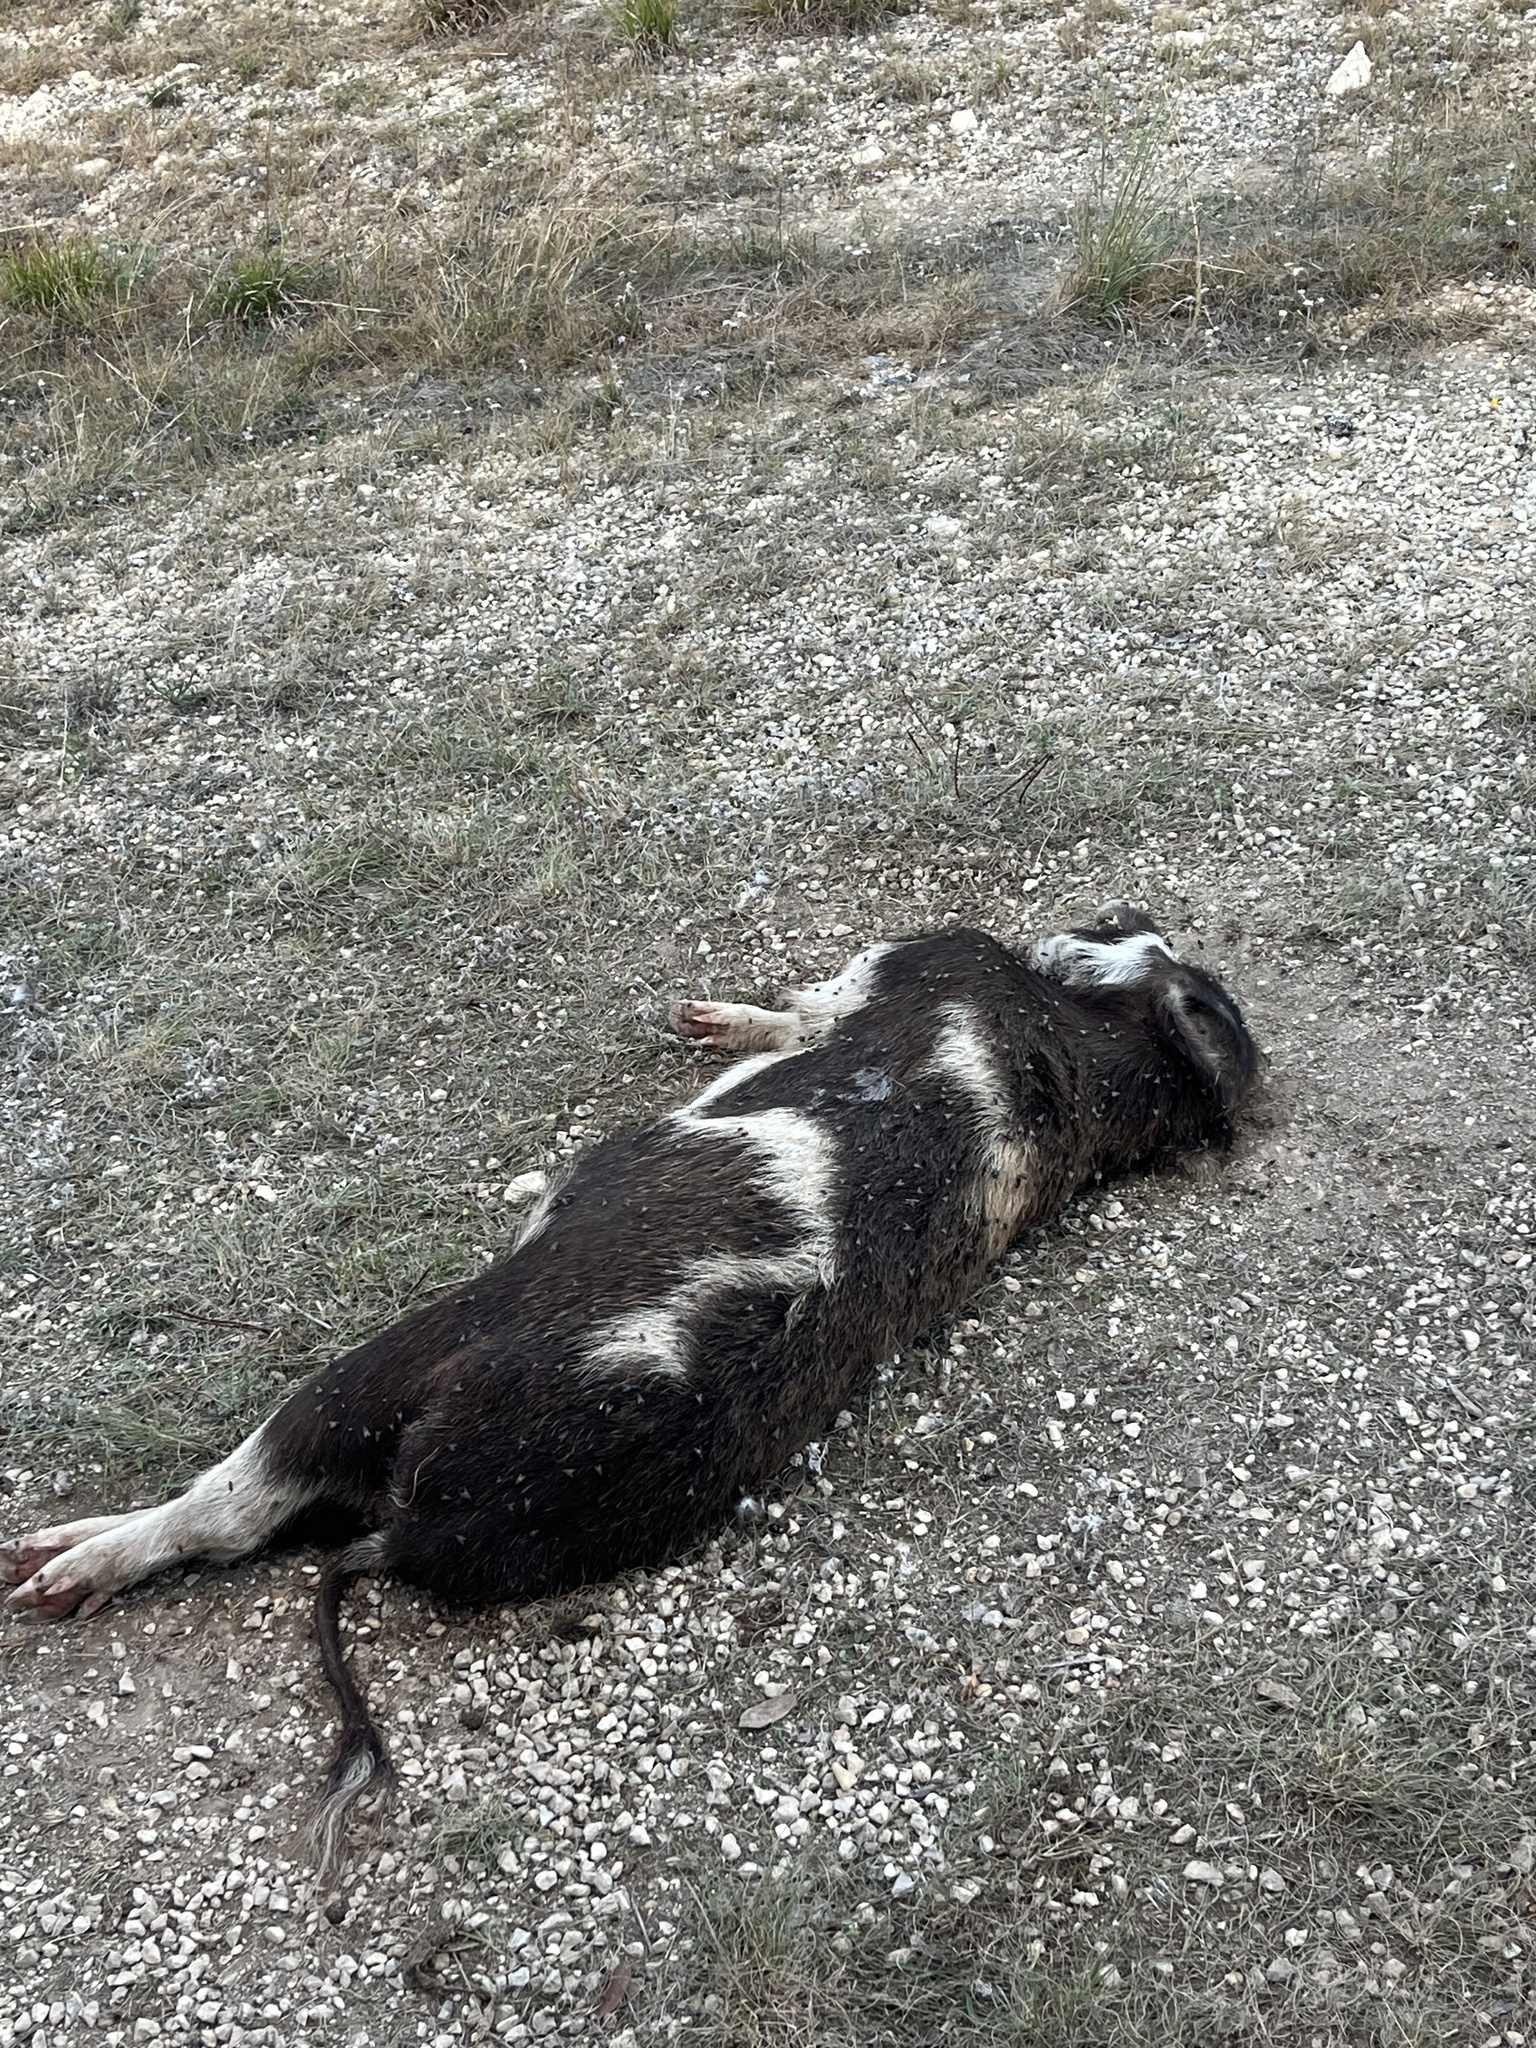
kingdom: Animalia
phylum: Chordata
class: Mammalia
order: Artiodactyla
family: Suidae
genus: Sus
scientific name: Sus scrofa
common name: Wild boar
